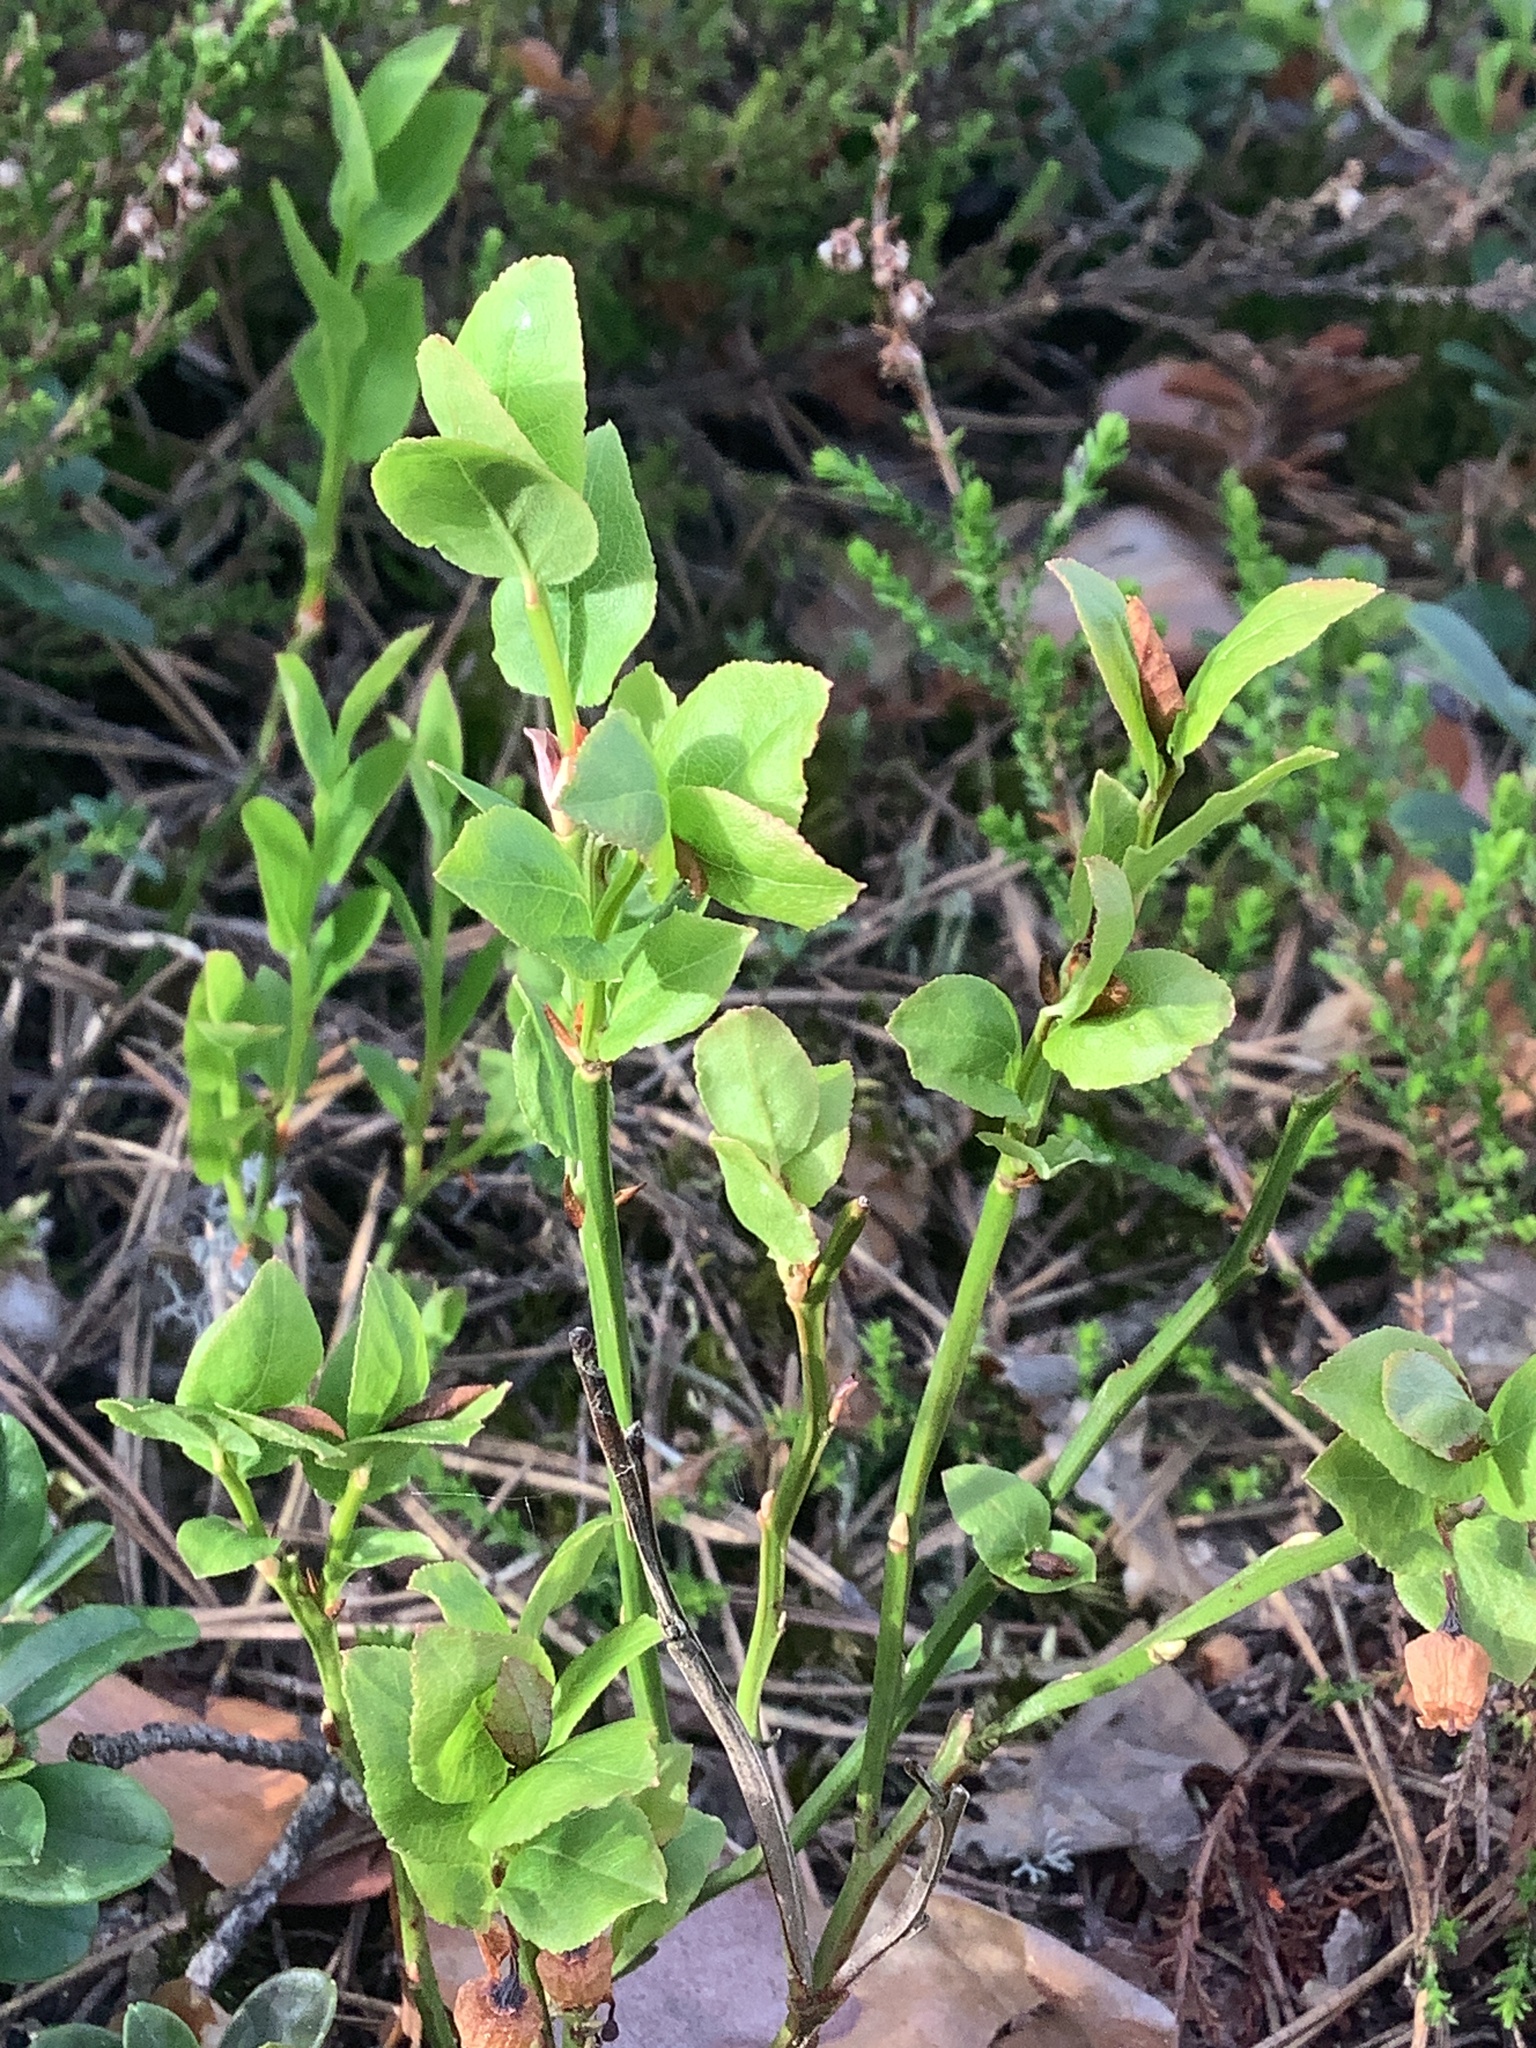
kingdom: Plantae
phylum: Tracheophyta
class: Magnoliopsida
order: Ericales
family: Ericaceae
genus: Vaccinium
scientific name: Vaccinium myrtillus
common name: Bilberry
